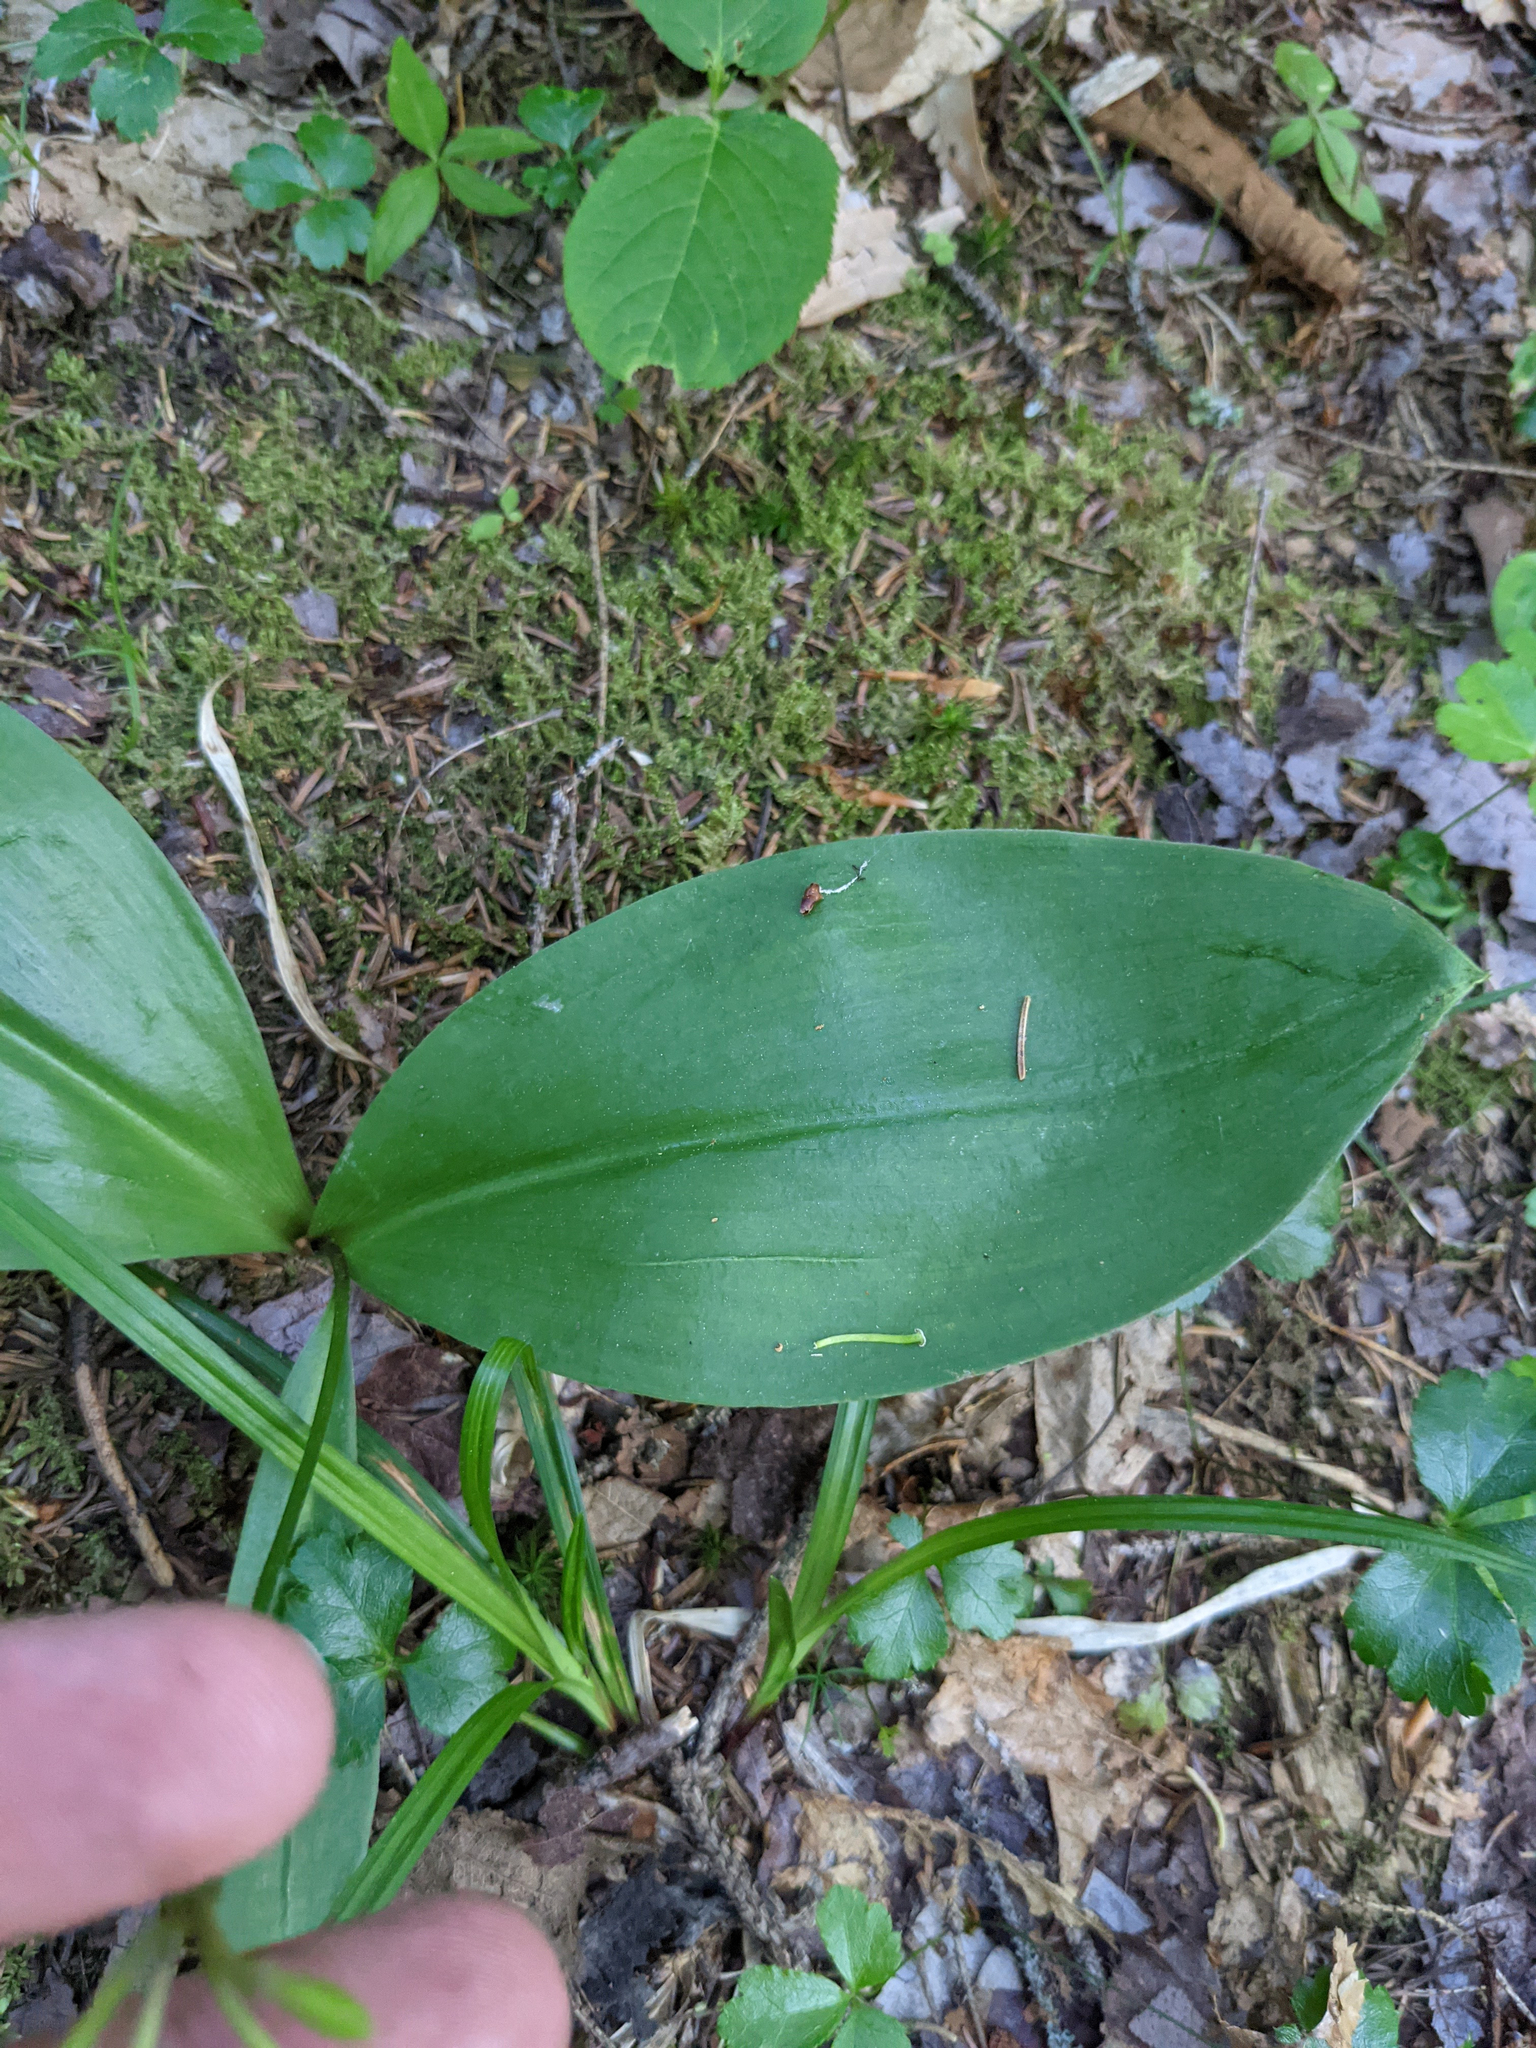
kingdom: Plantae
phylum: Tracheophyta
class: Liliopsida
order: Liliales
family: Liliaceae
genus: Clintonia
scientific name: Clintonia borealis
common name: Yellow clintonia
